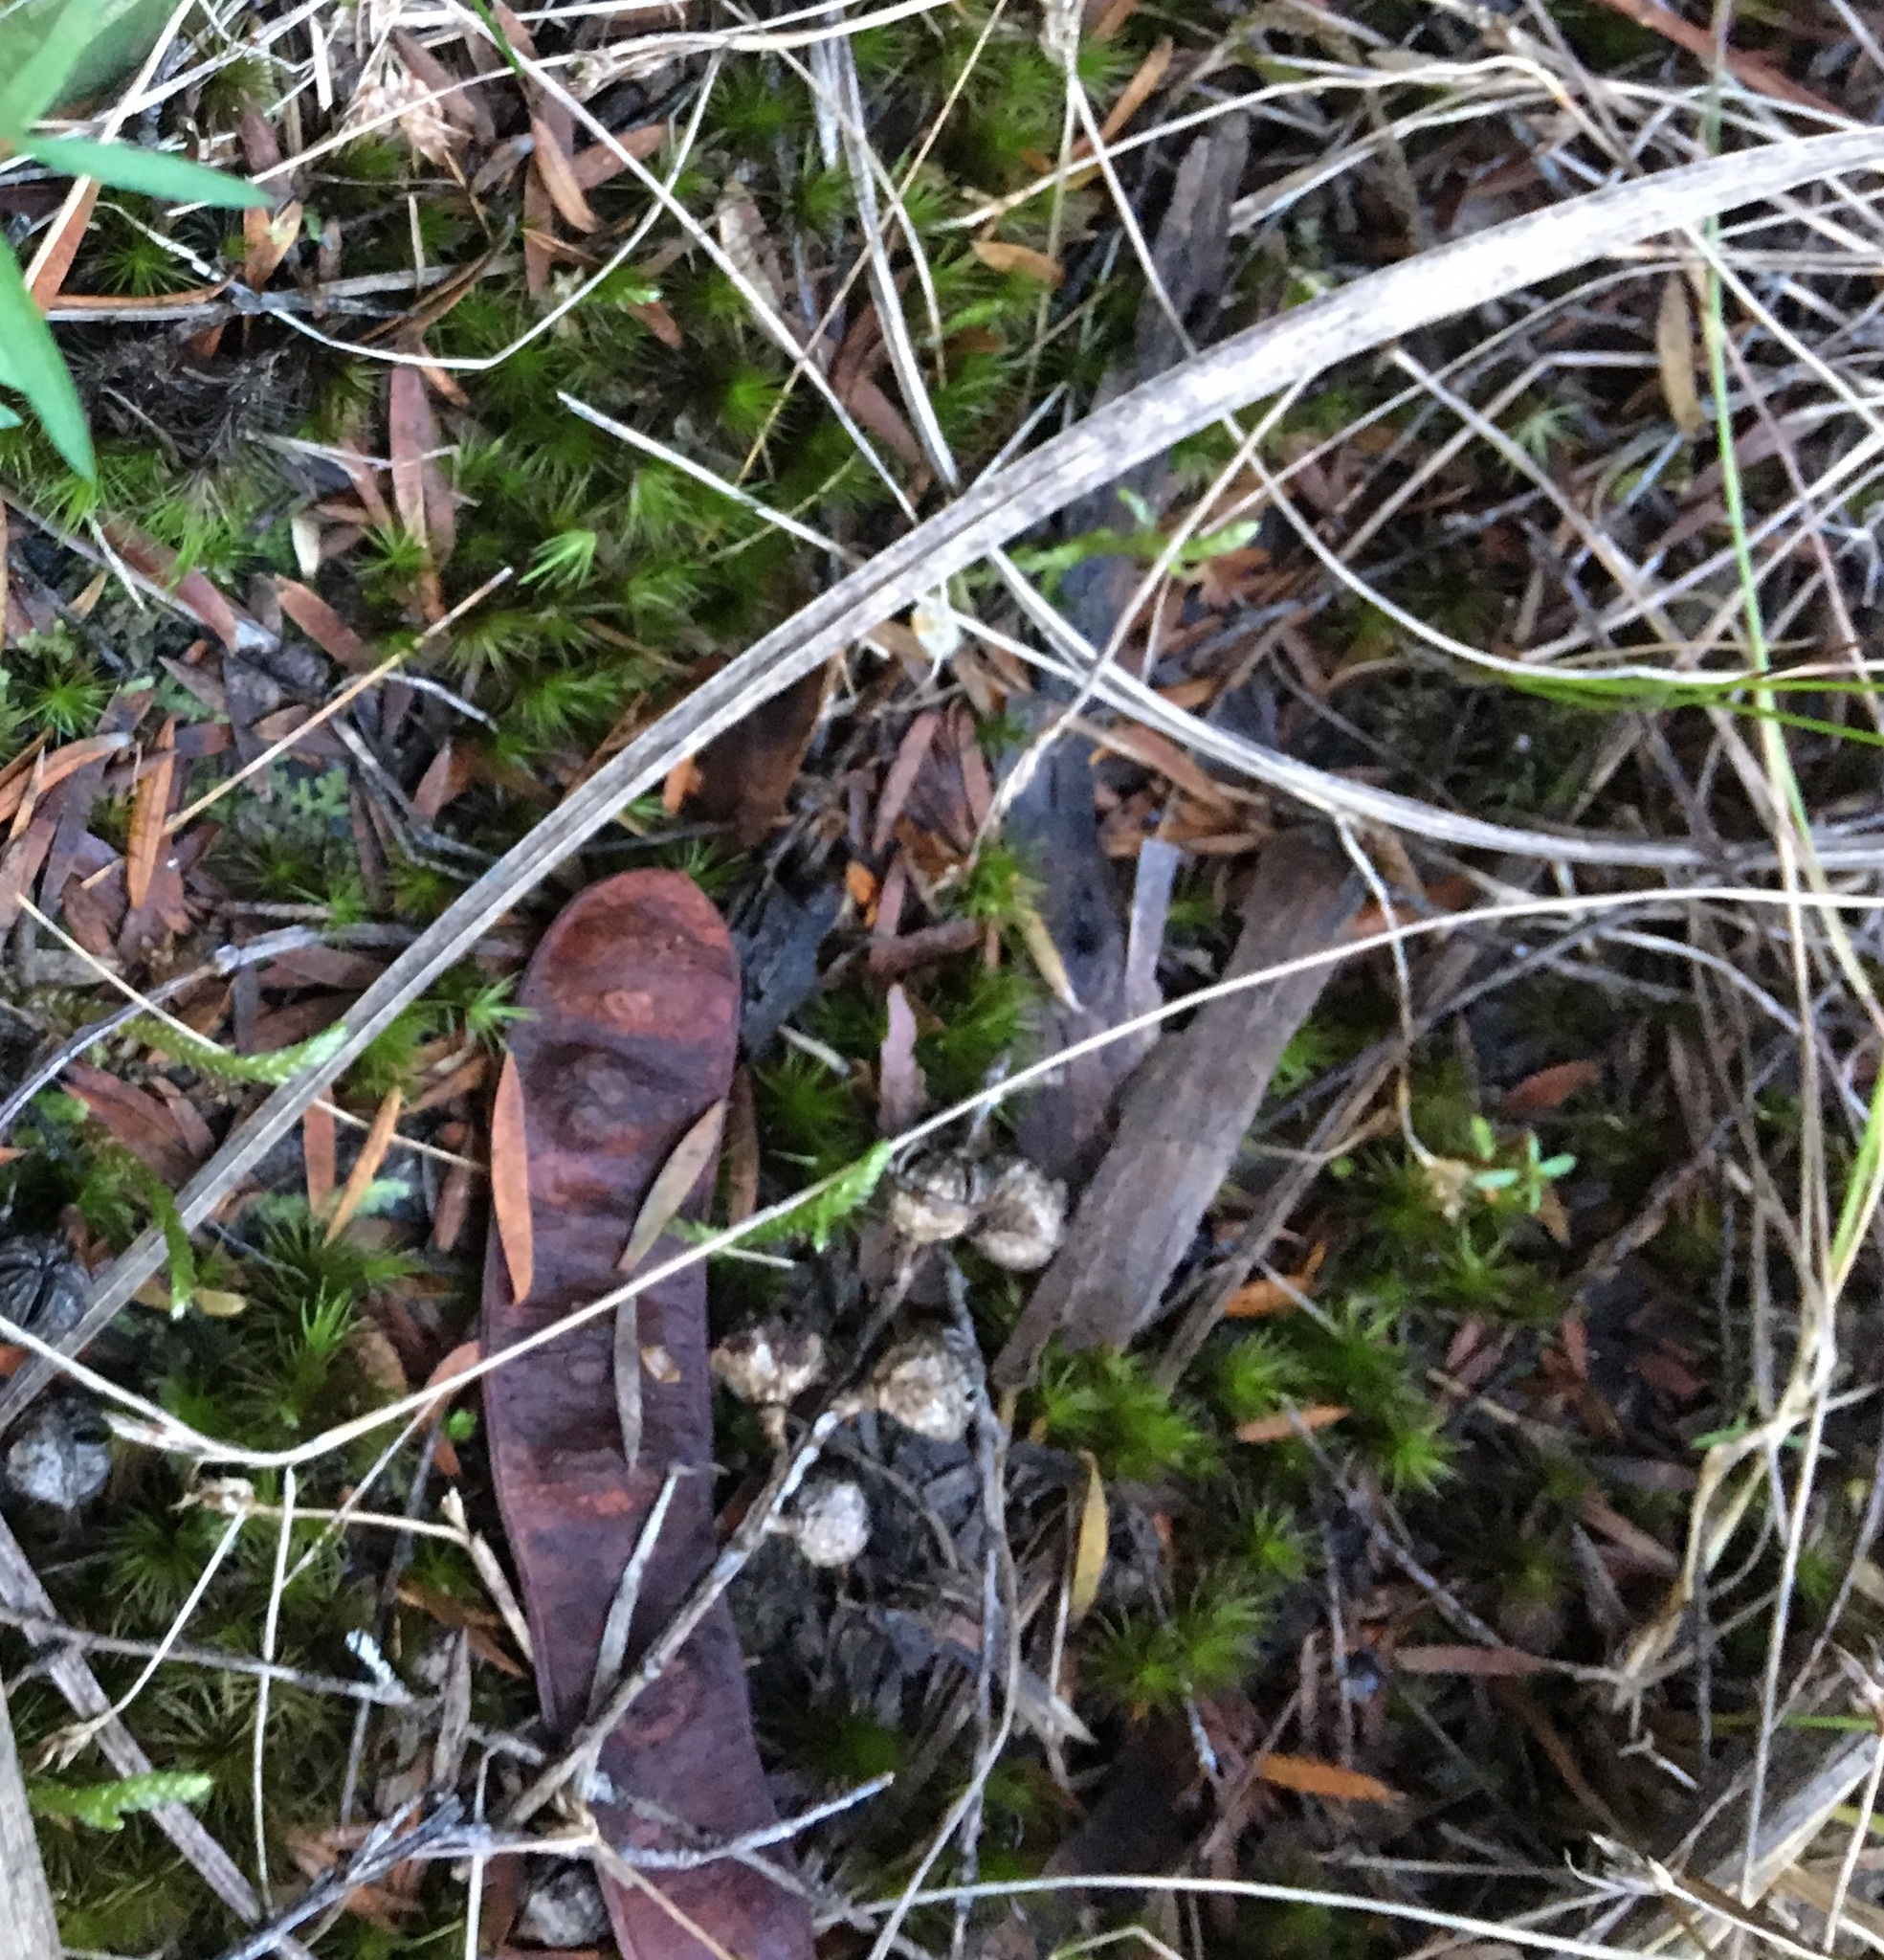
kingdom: Plantae
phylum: Tracheophyta
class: Magnoliopsida
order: Fabales
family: Fabaceae
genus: Paraserianthes
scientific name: Paraserianthes lophantha
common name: Plume albizia
